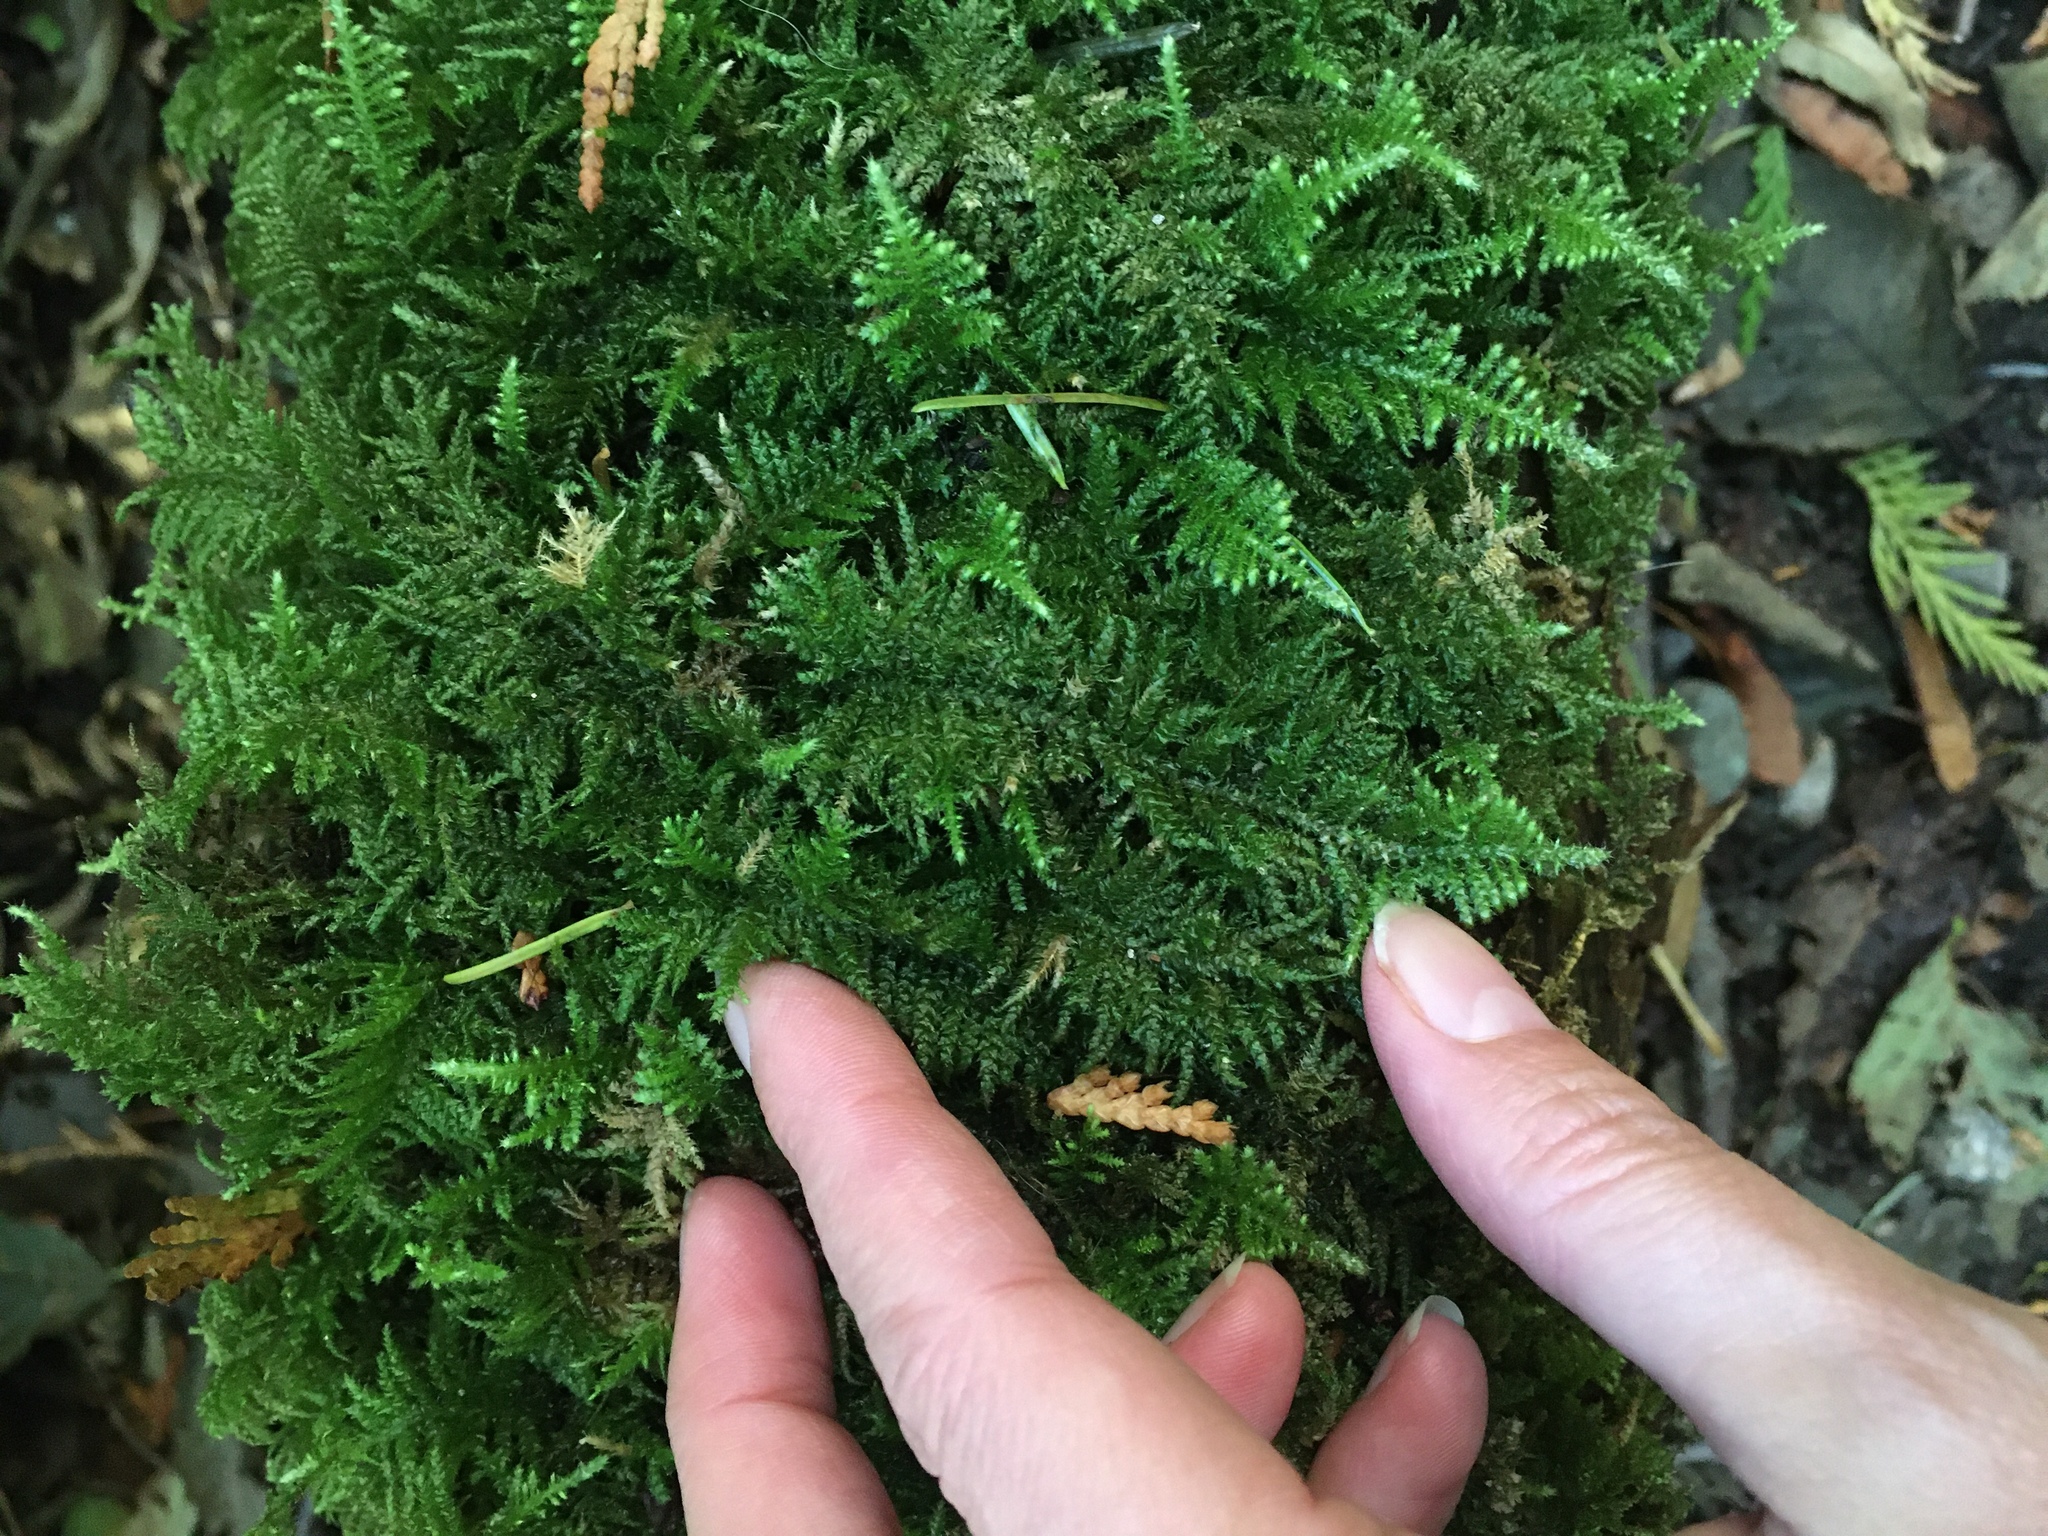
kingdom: Plantae
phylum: Bryophyta
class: Bryopsida
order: Hypnales
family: Brachytheciaceae
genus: Kindbergia
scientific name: Kindbergia oregana
